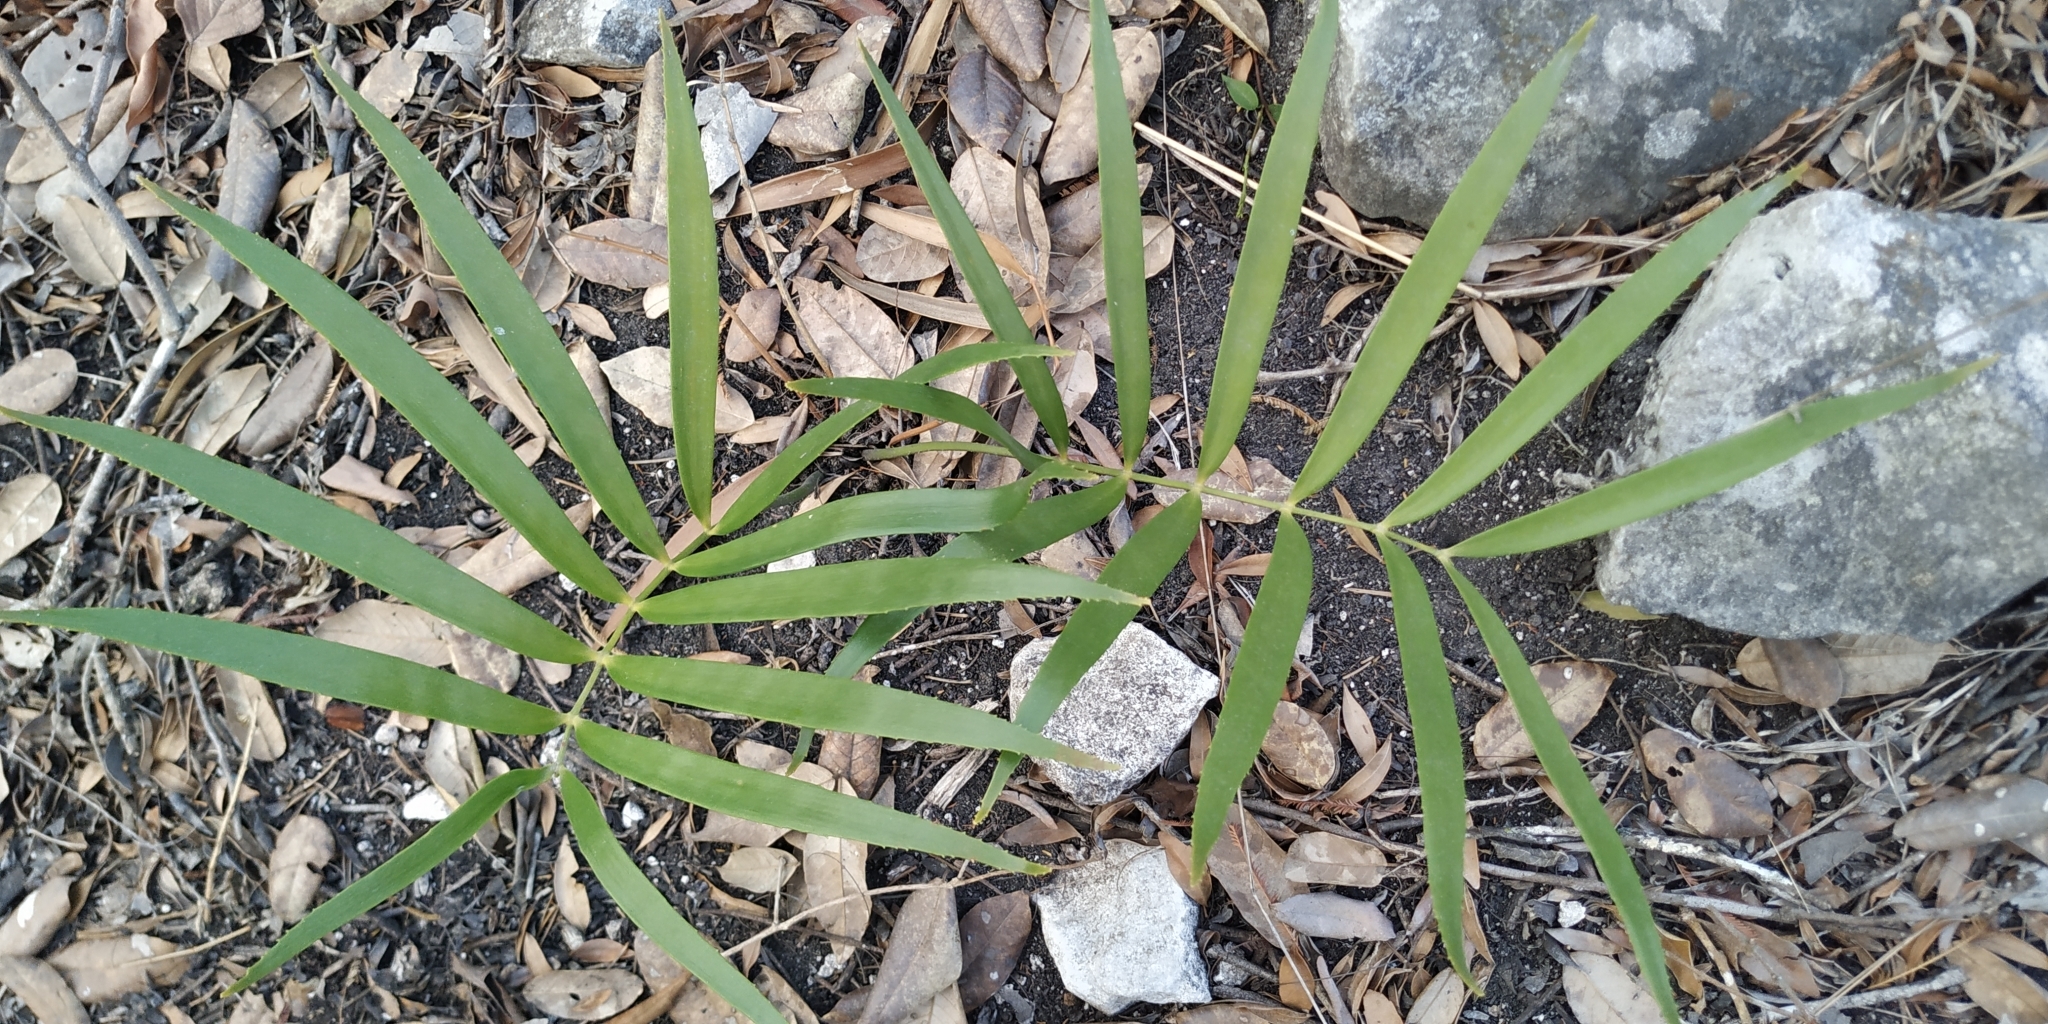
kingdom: Plantae
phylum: Tracheophyta
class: Cycadopsida
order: Cycadales
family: Zamiaceae
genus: Zamia
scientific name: Zamia loddigesii
